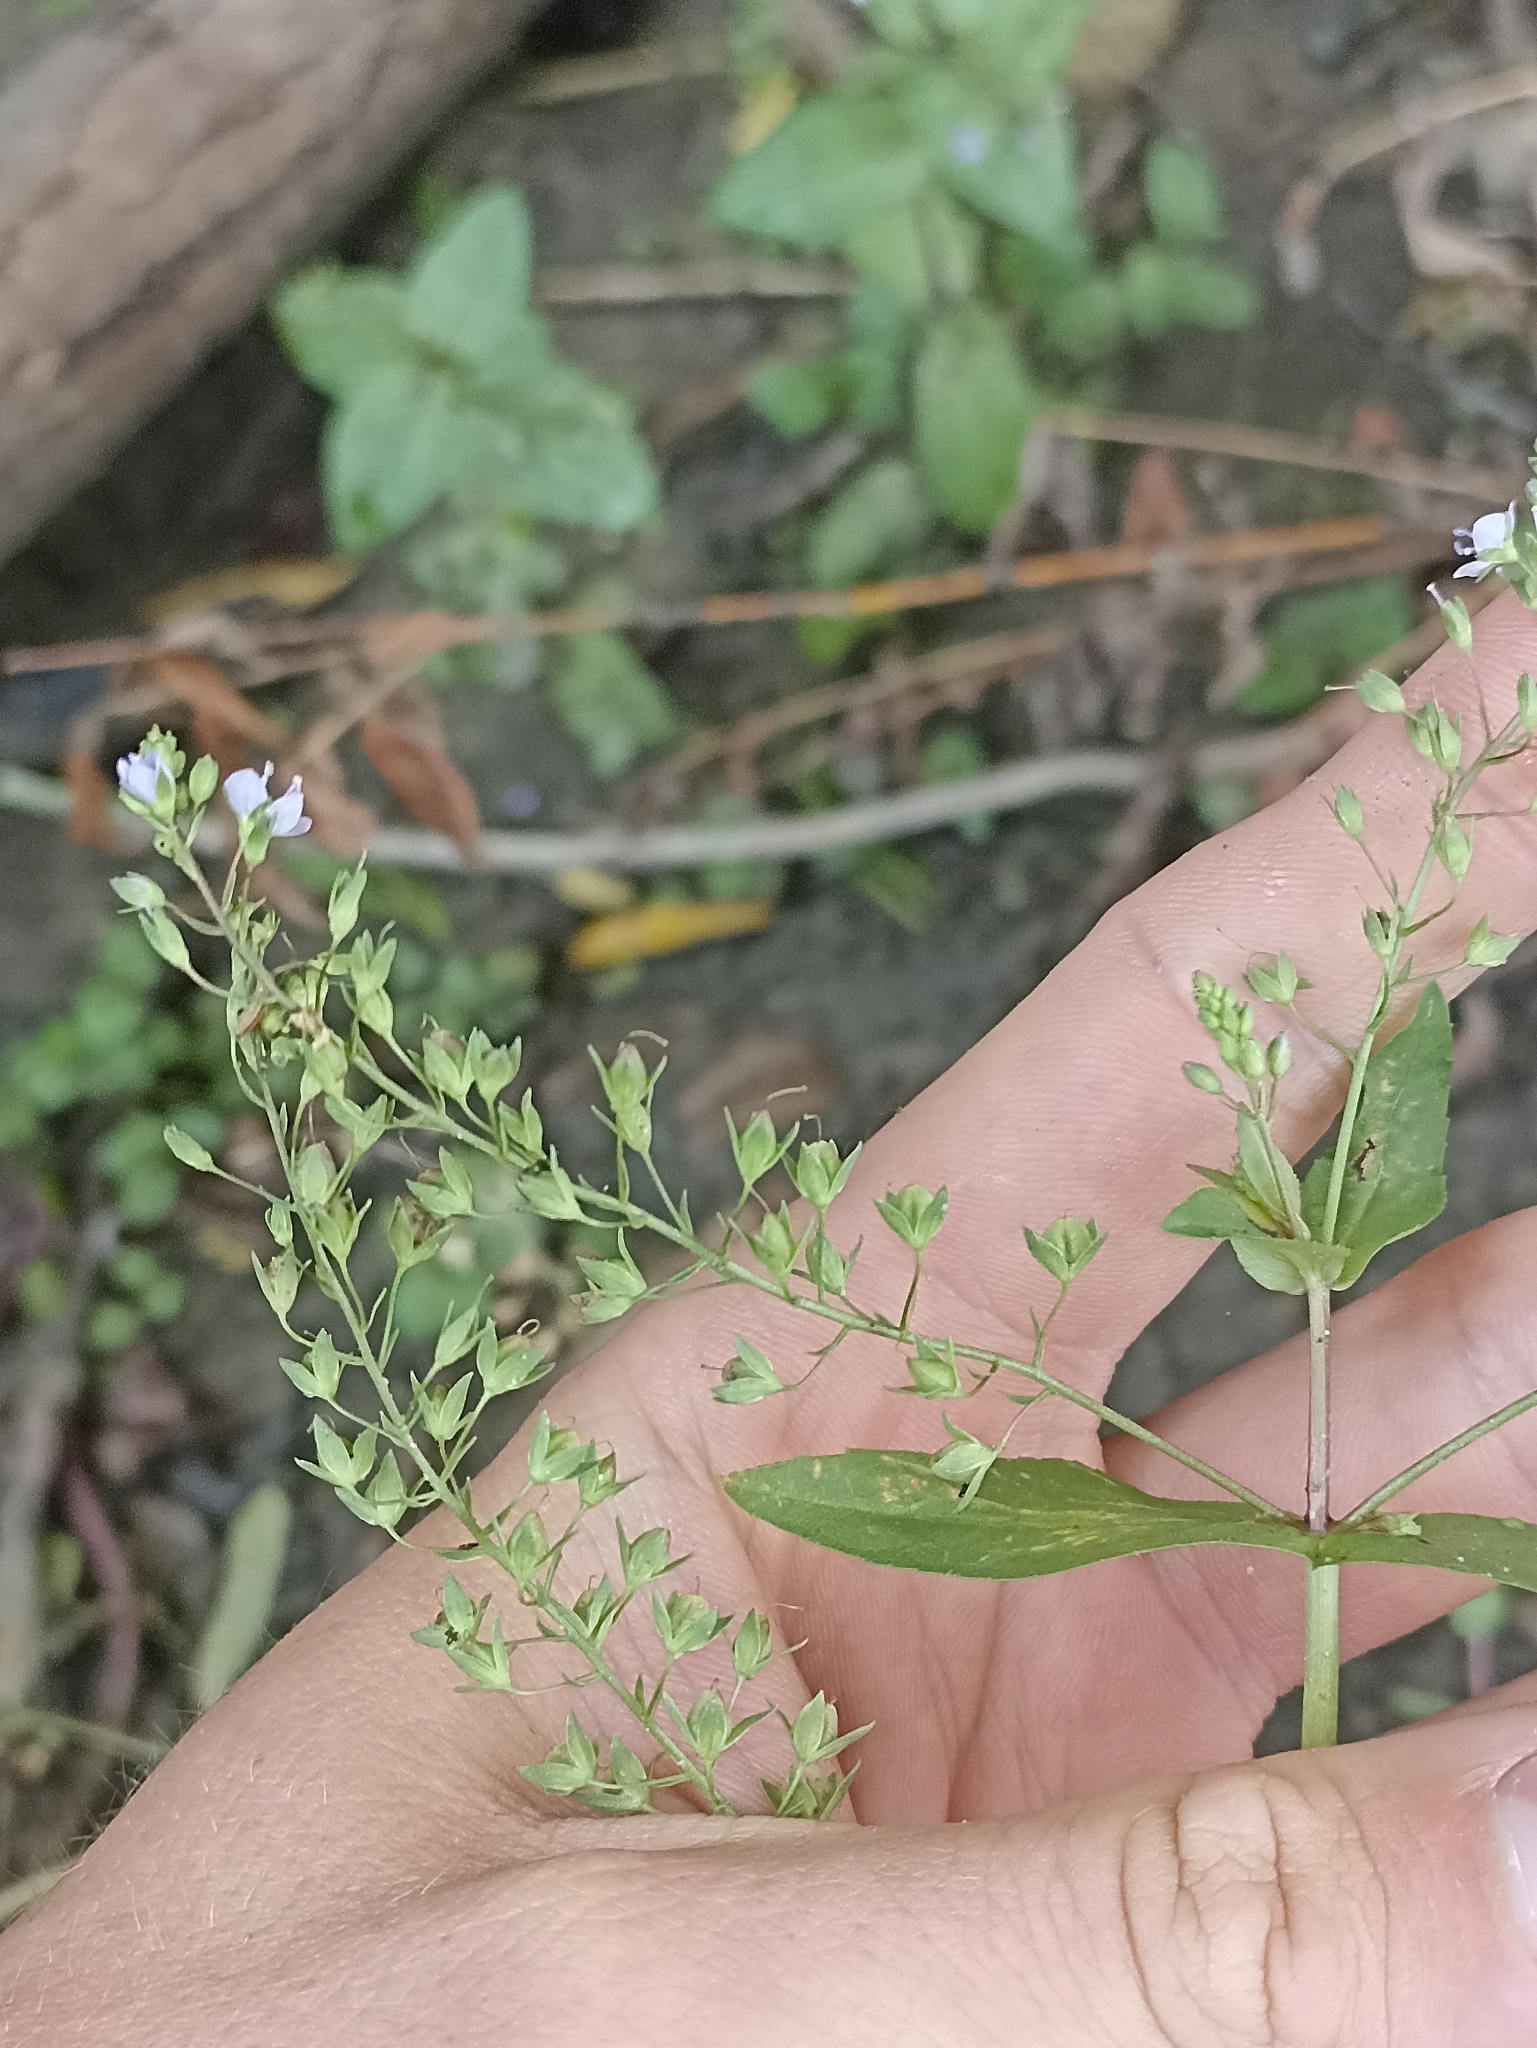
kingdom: Plantae
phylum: Tracheophyta
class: Magnoliopsida
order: Lamiales
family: Plantaginaceae
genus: Veronica
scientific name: Veronica anagallis-aquatica
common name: Water speedwell
